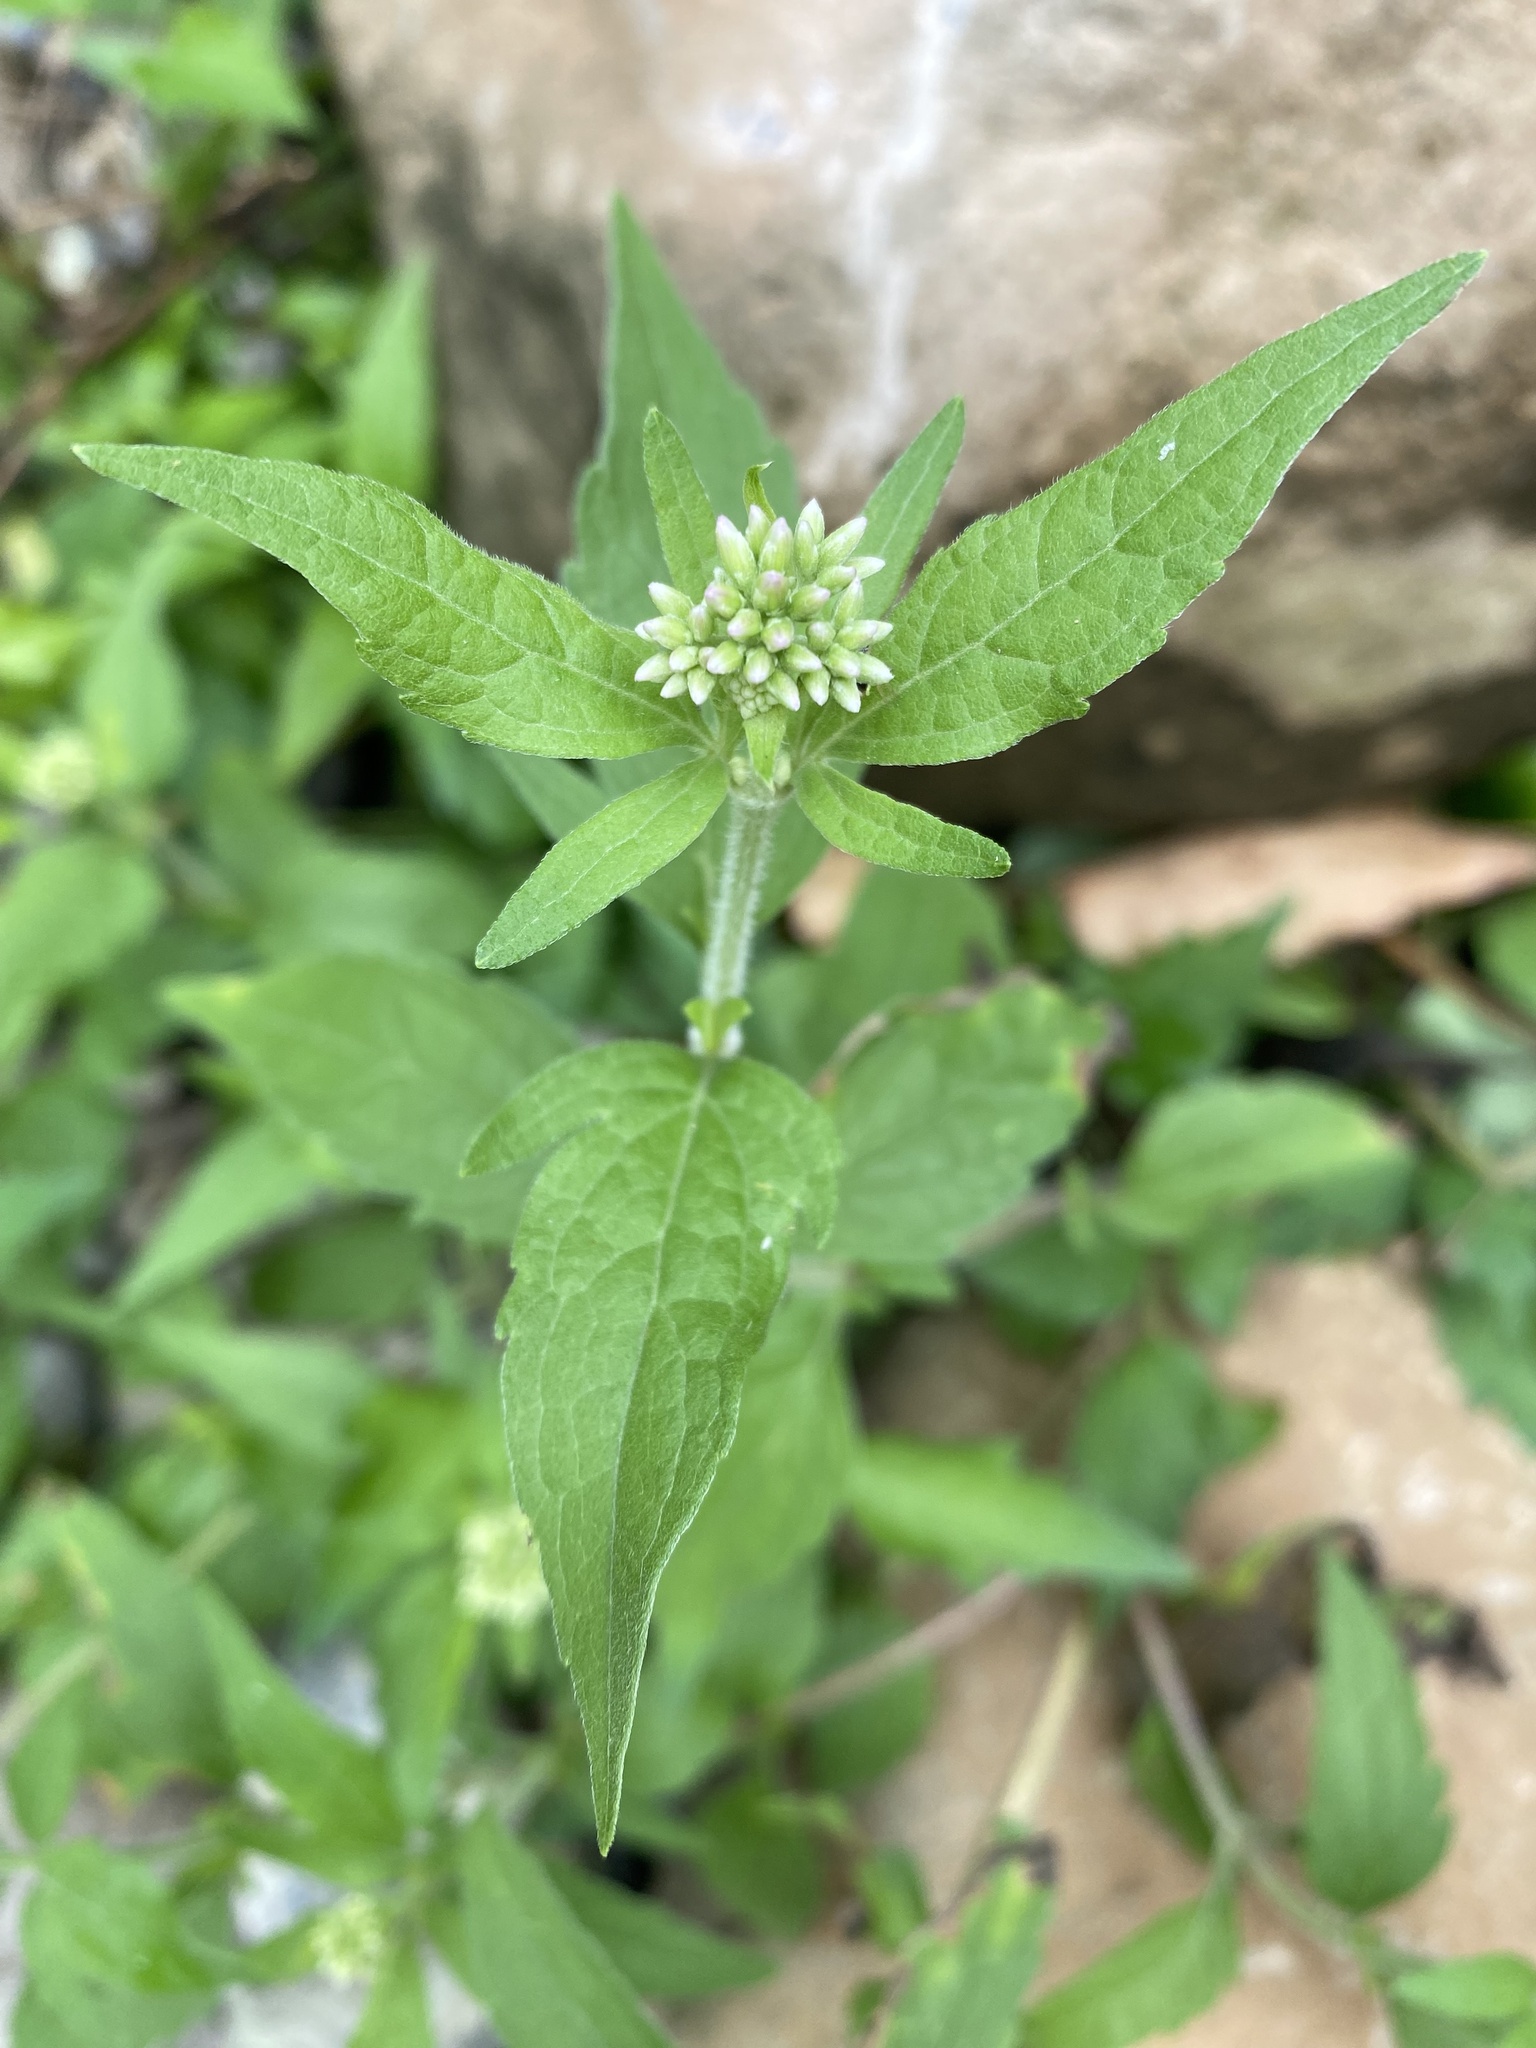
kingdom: Plantae
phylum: Tracheophyta
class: Magnoliopsida
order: Asterales
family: Asteraceae
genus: Eupatorium
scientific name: Eupatorium cannabinum
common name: Hemp-agrimony
